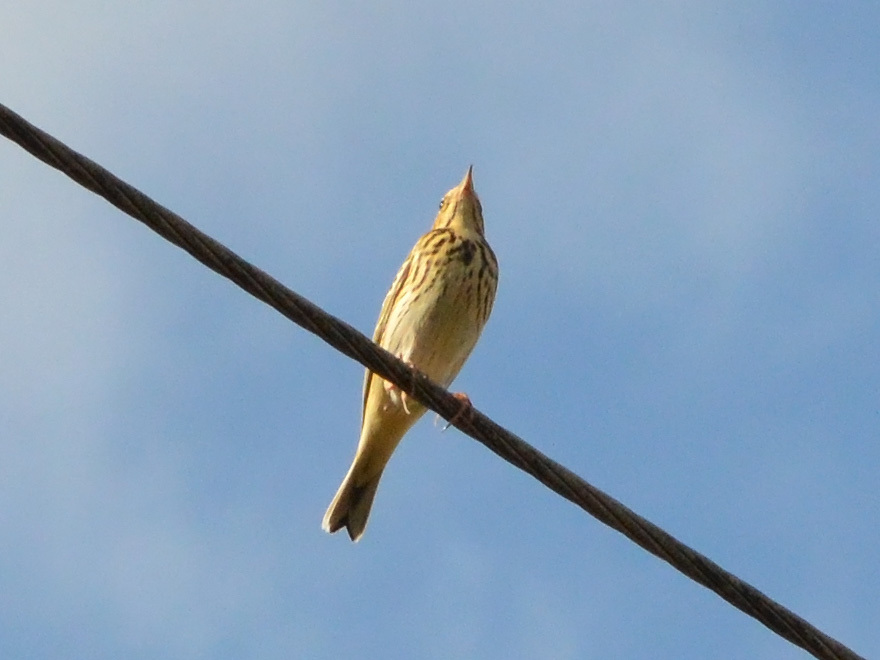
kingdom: Animalia
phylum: Chordata
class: Aves
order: Passeriformes
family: Motacillidae
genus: Anthus
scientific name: Anthus trivialis
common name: Tree pipit
